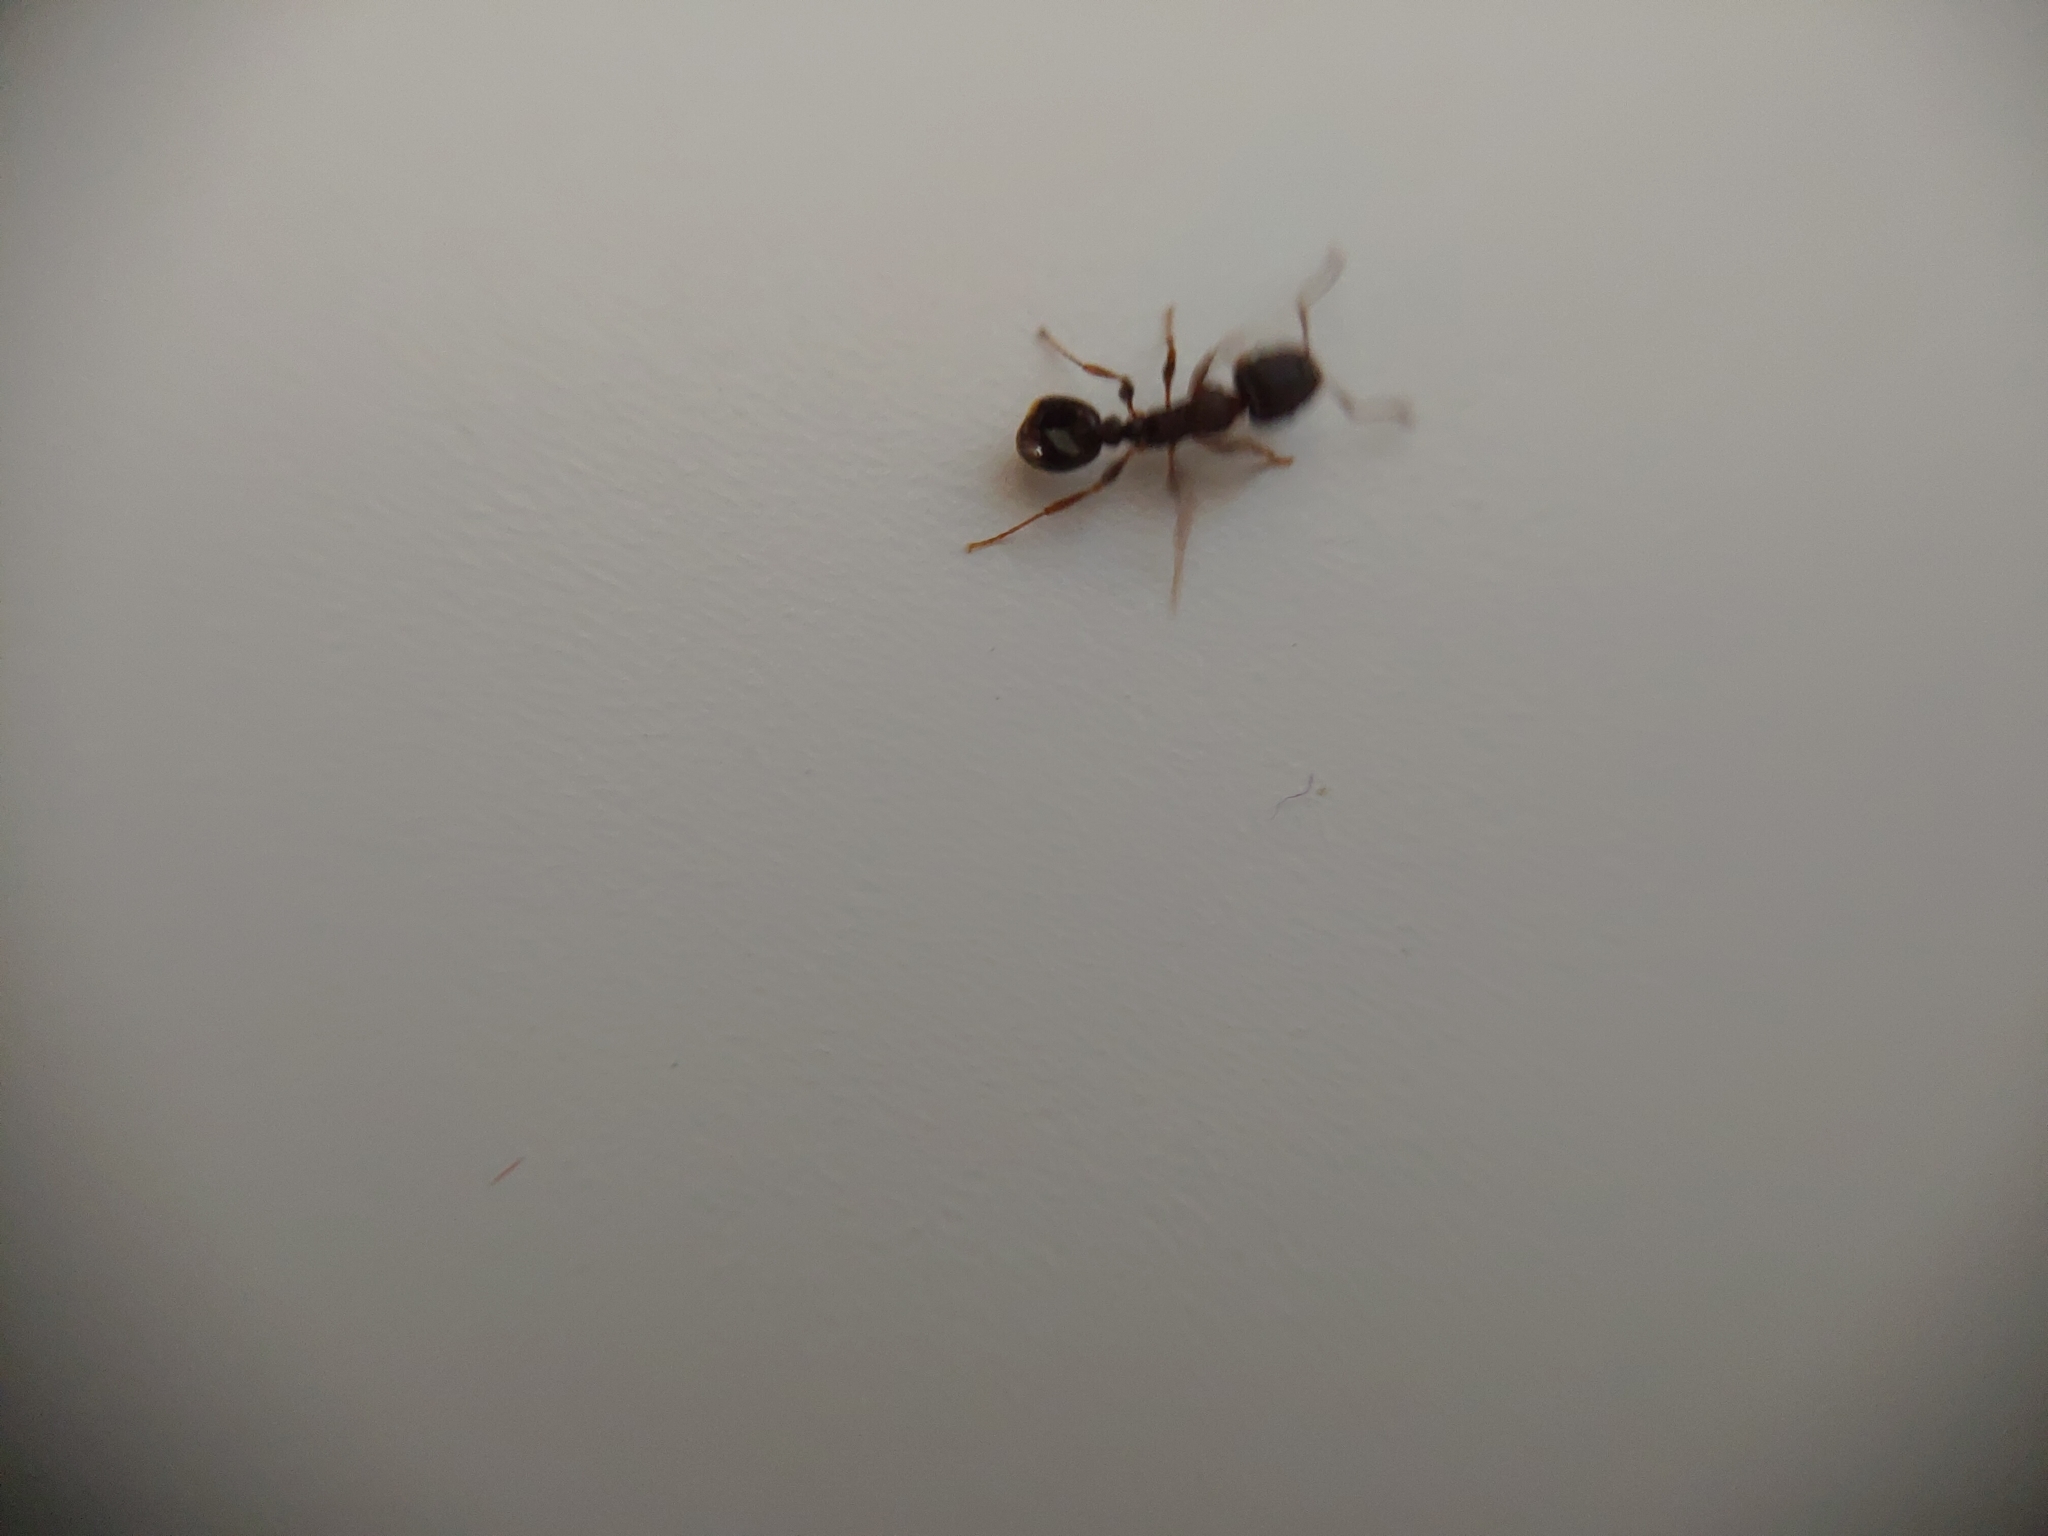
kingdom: Animalia
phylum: Arthropoda
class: Insecta
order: Hymenoptera
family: Formicidae
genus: Tetramorium
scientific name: Tetramorium immigrans
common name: Pavement ant
